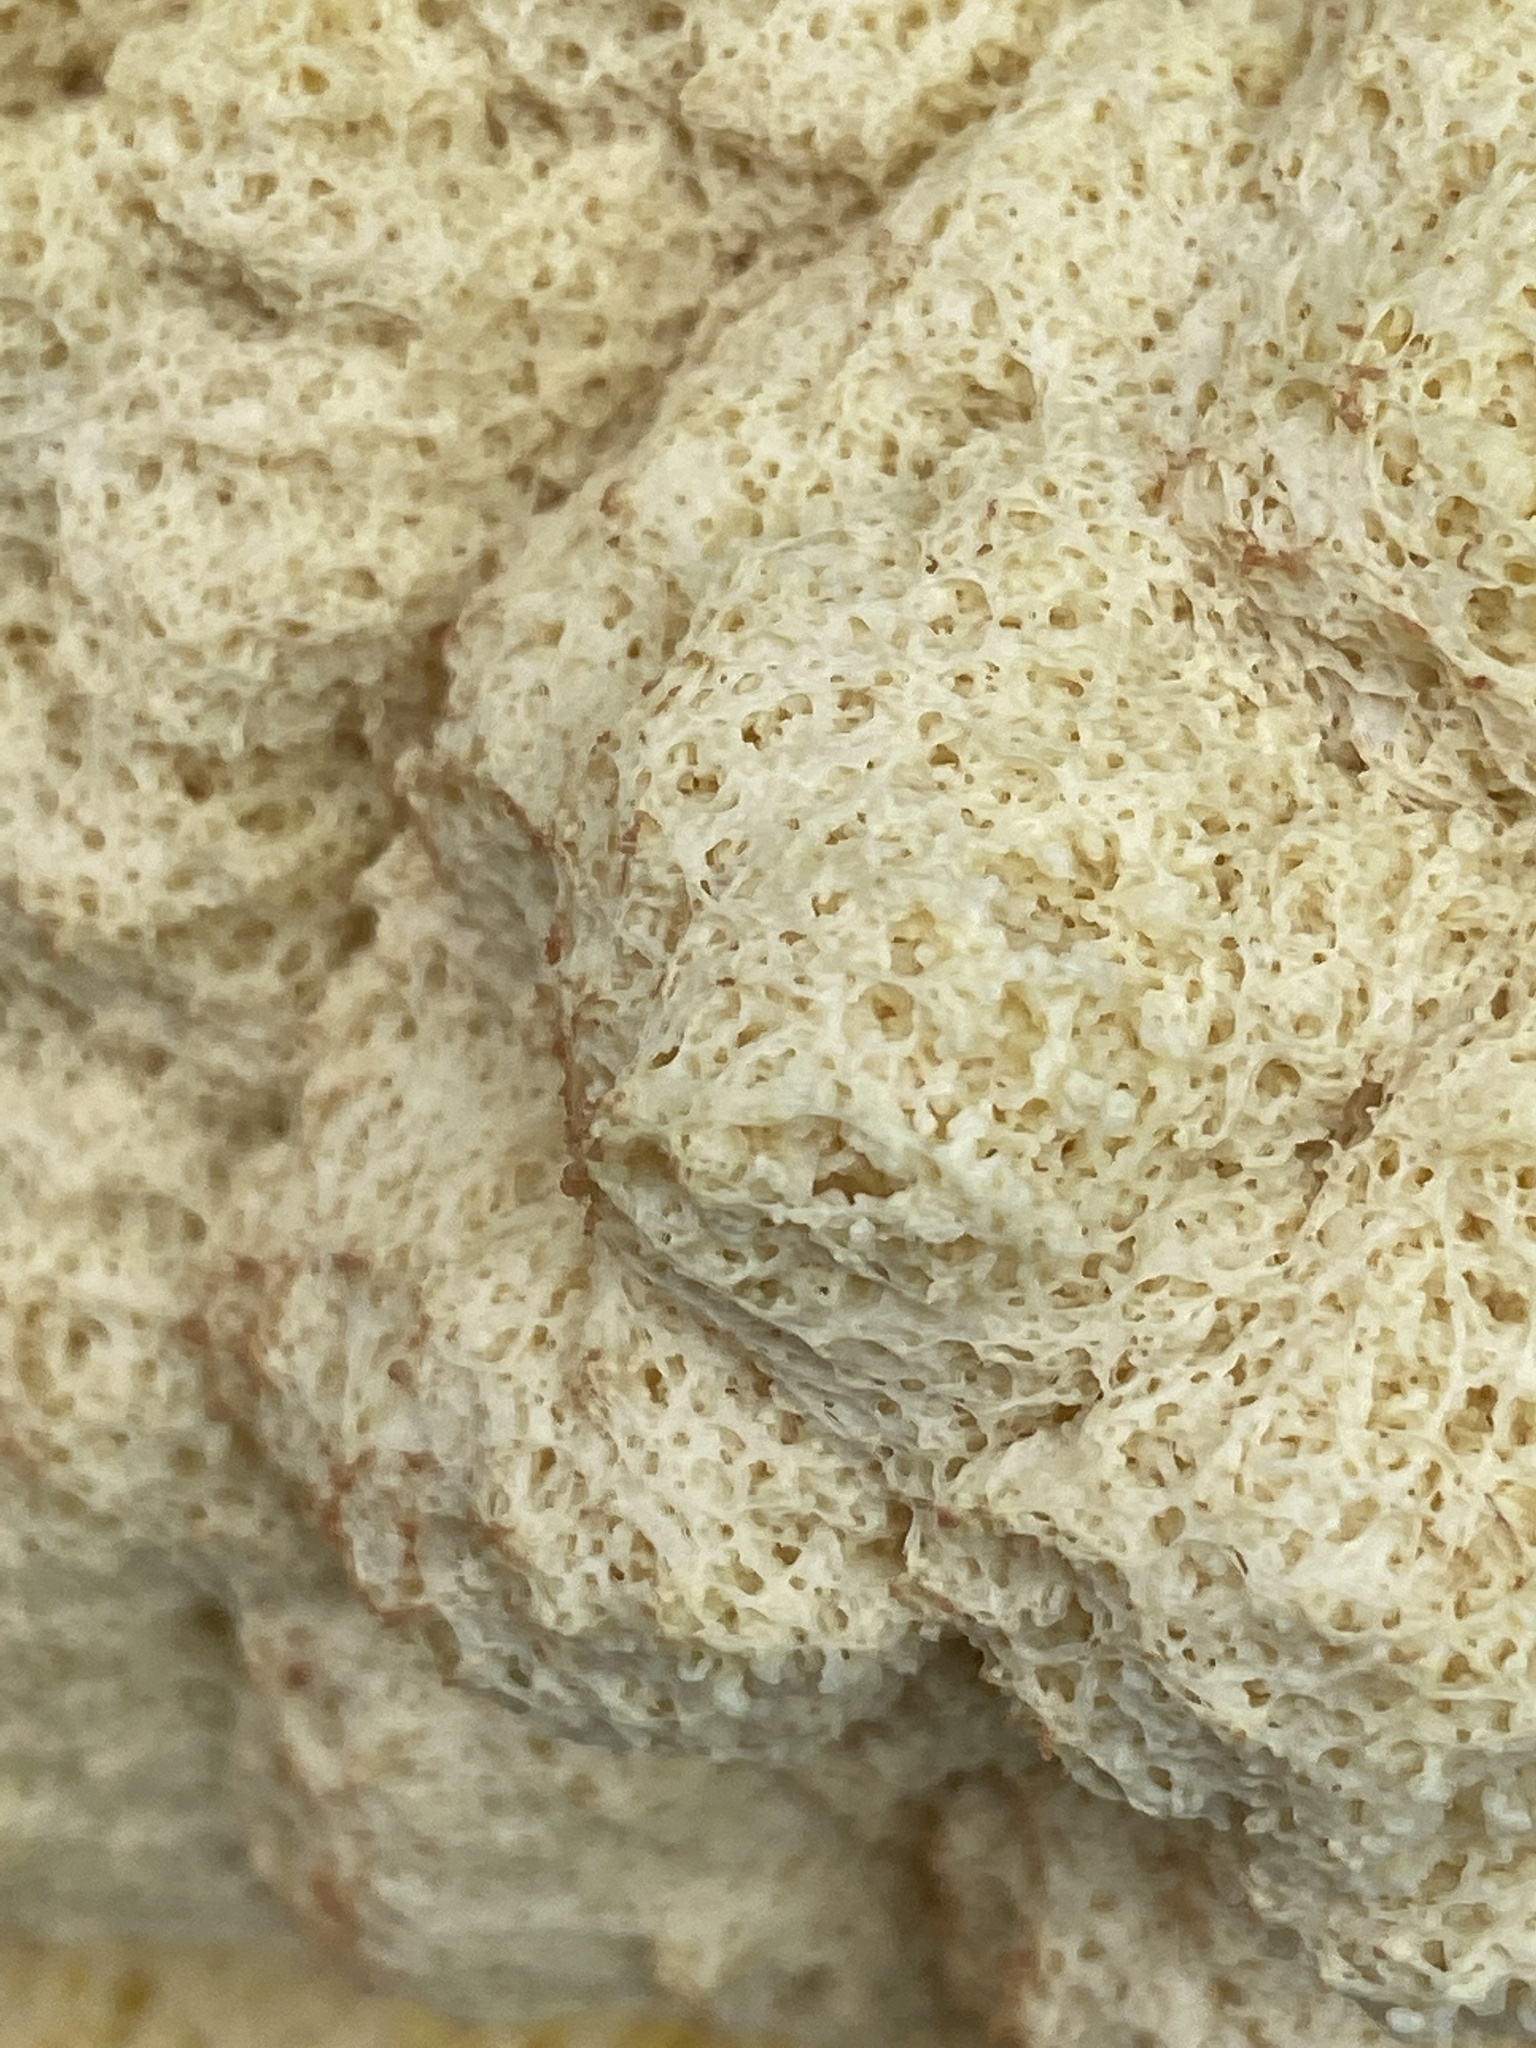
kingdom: Protozoa
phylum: Mycetozoa
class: Myxomycetes
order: Physarales
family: Physaraceae
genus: Fuligo
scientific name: Fuligo septica
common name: Dog vomit slime mold
